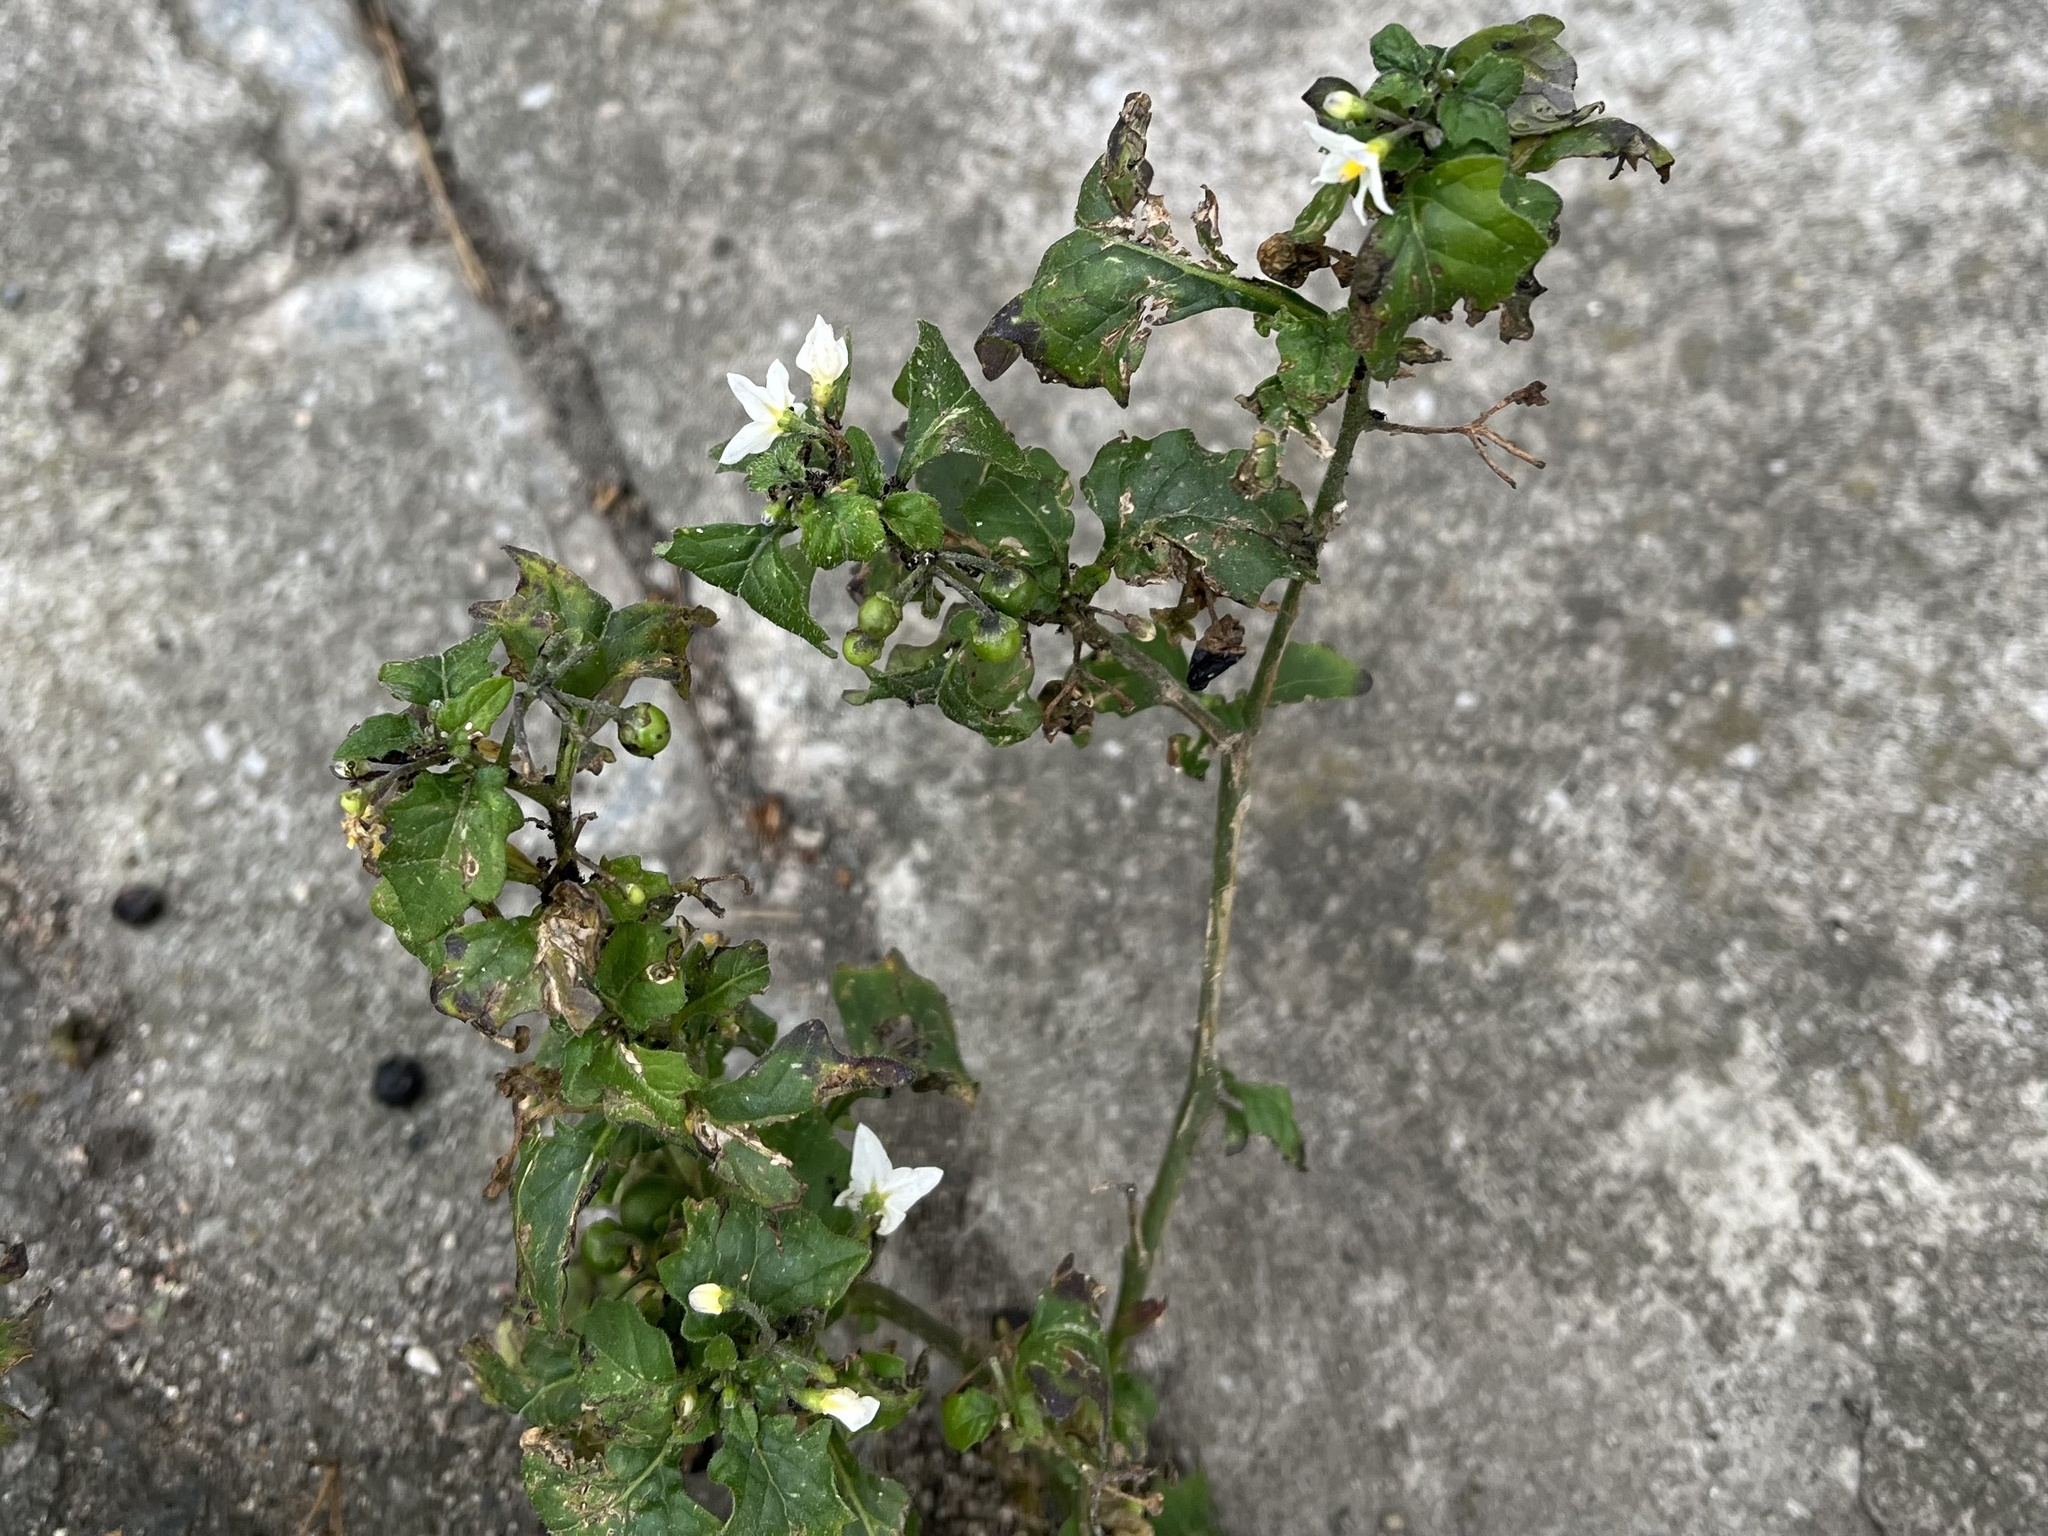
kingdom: Plantae
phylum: Tracheophyta
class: Magnoliopsida
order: Solanales
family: Solanaceae
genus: Solanum
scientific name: Solanum nigrum
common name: Black nightshade
